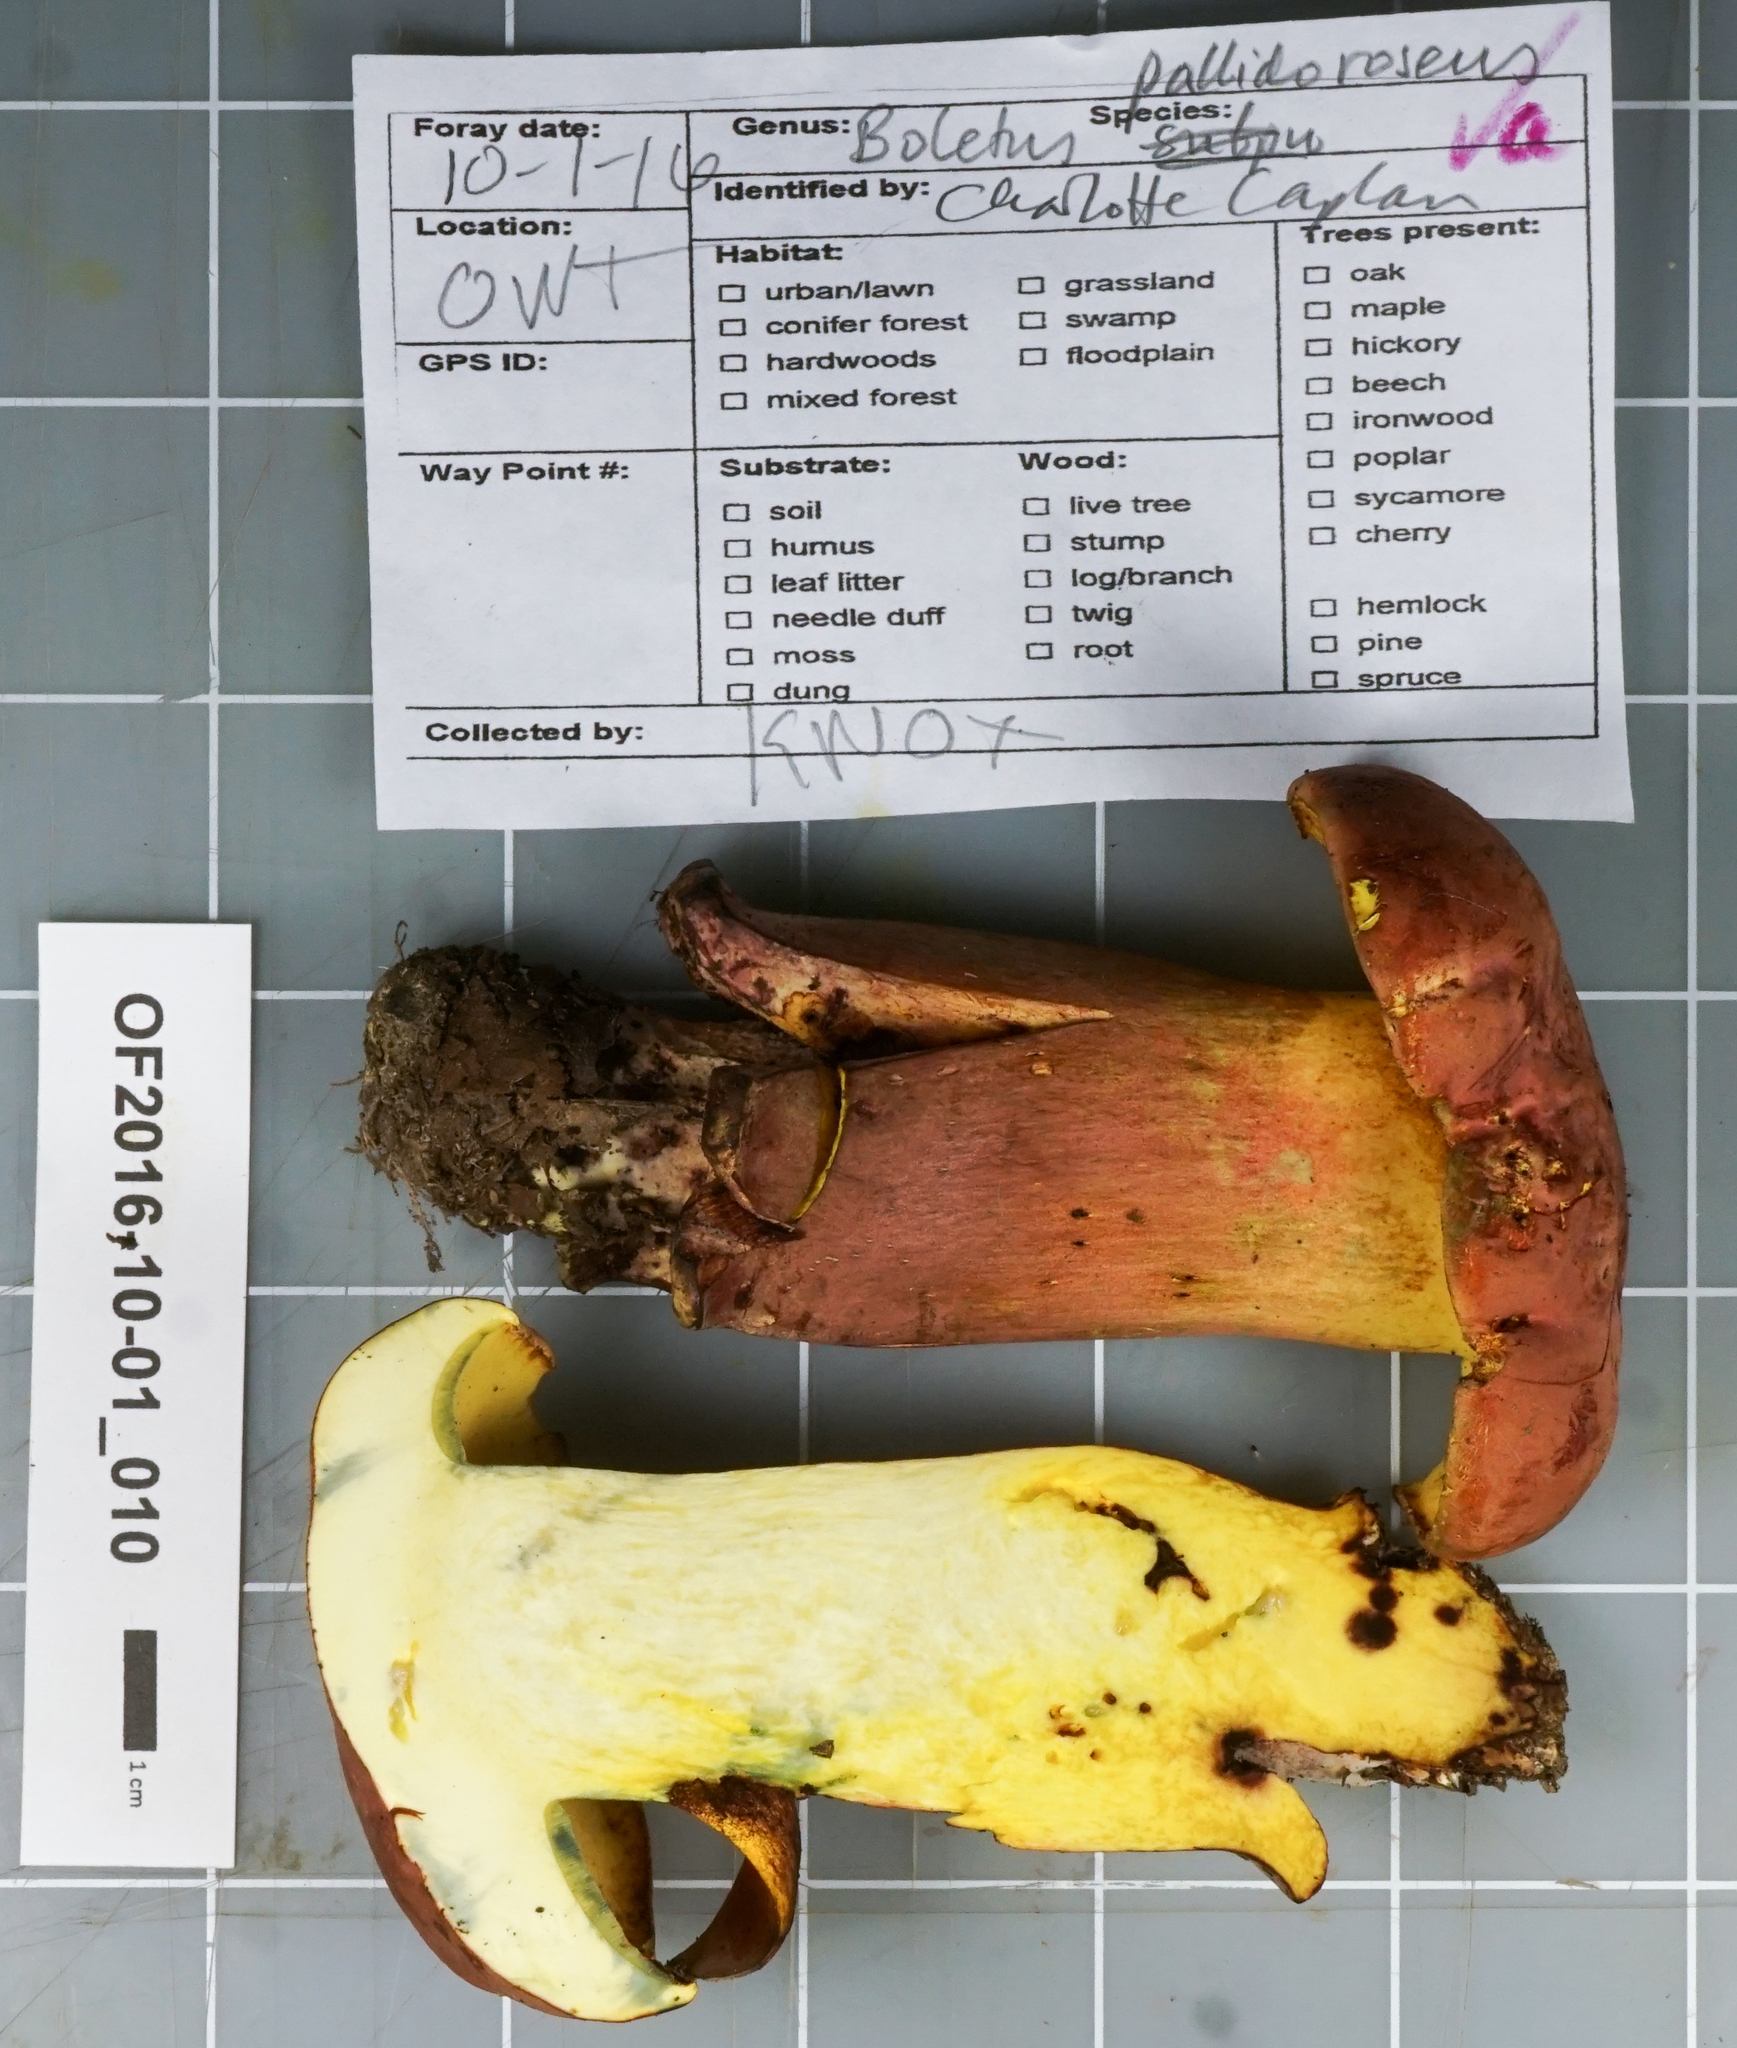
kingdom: Fungi
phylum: Basidiomycota
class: Agaricomycetes
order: Boletales
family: Boletaceae
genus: Lanmaoa
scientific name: Lanmaoa pallidorosea
